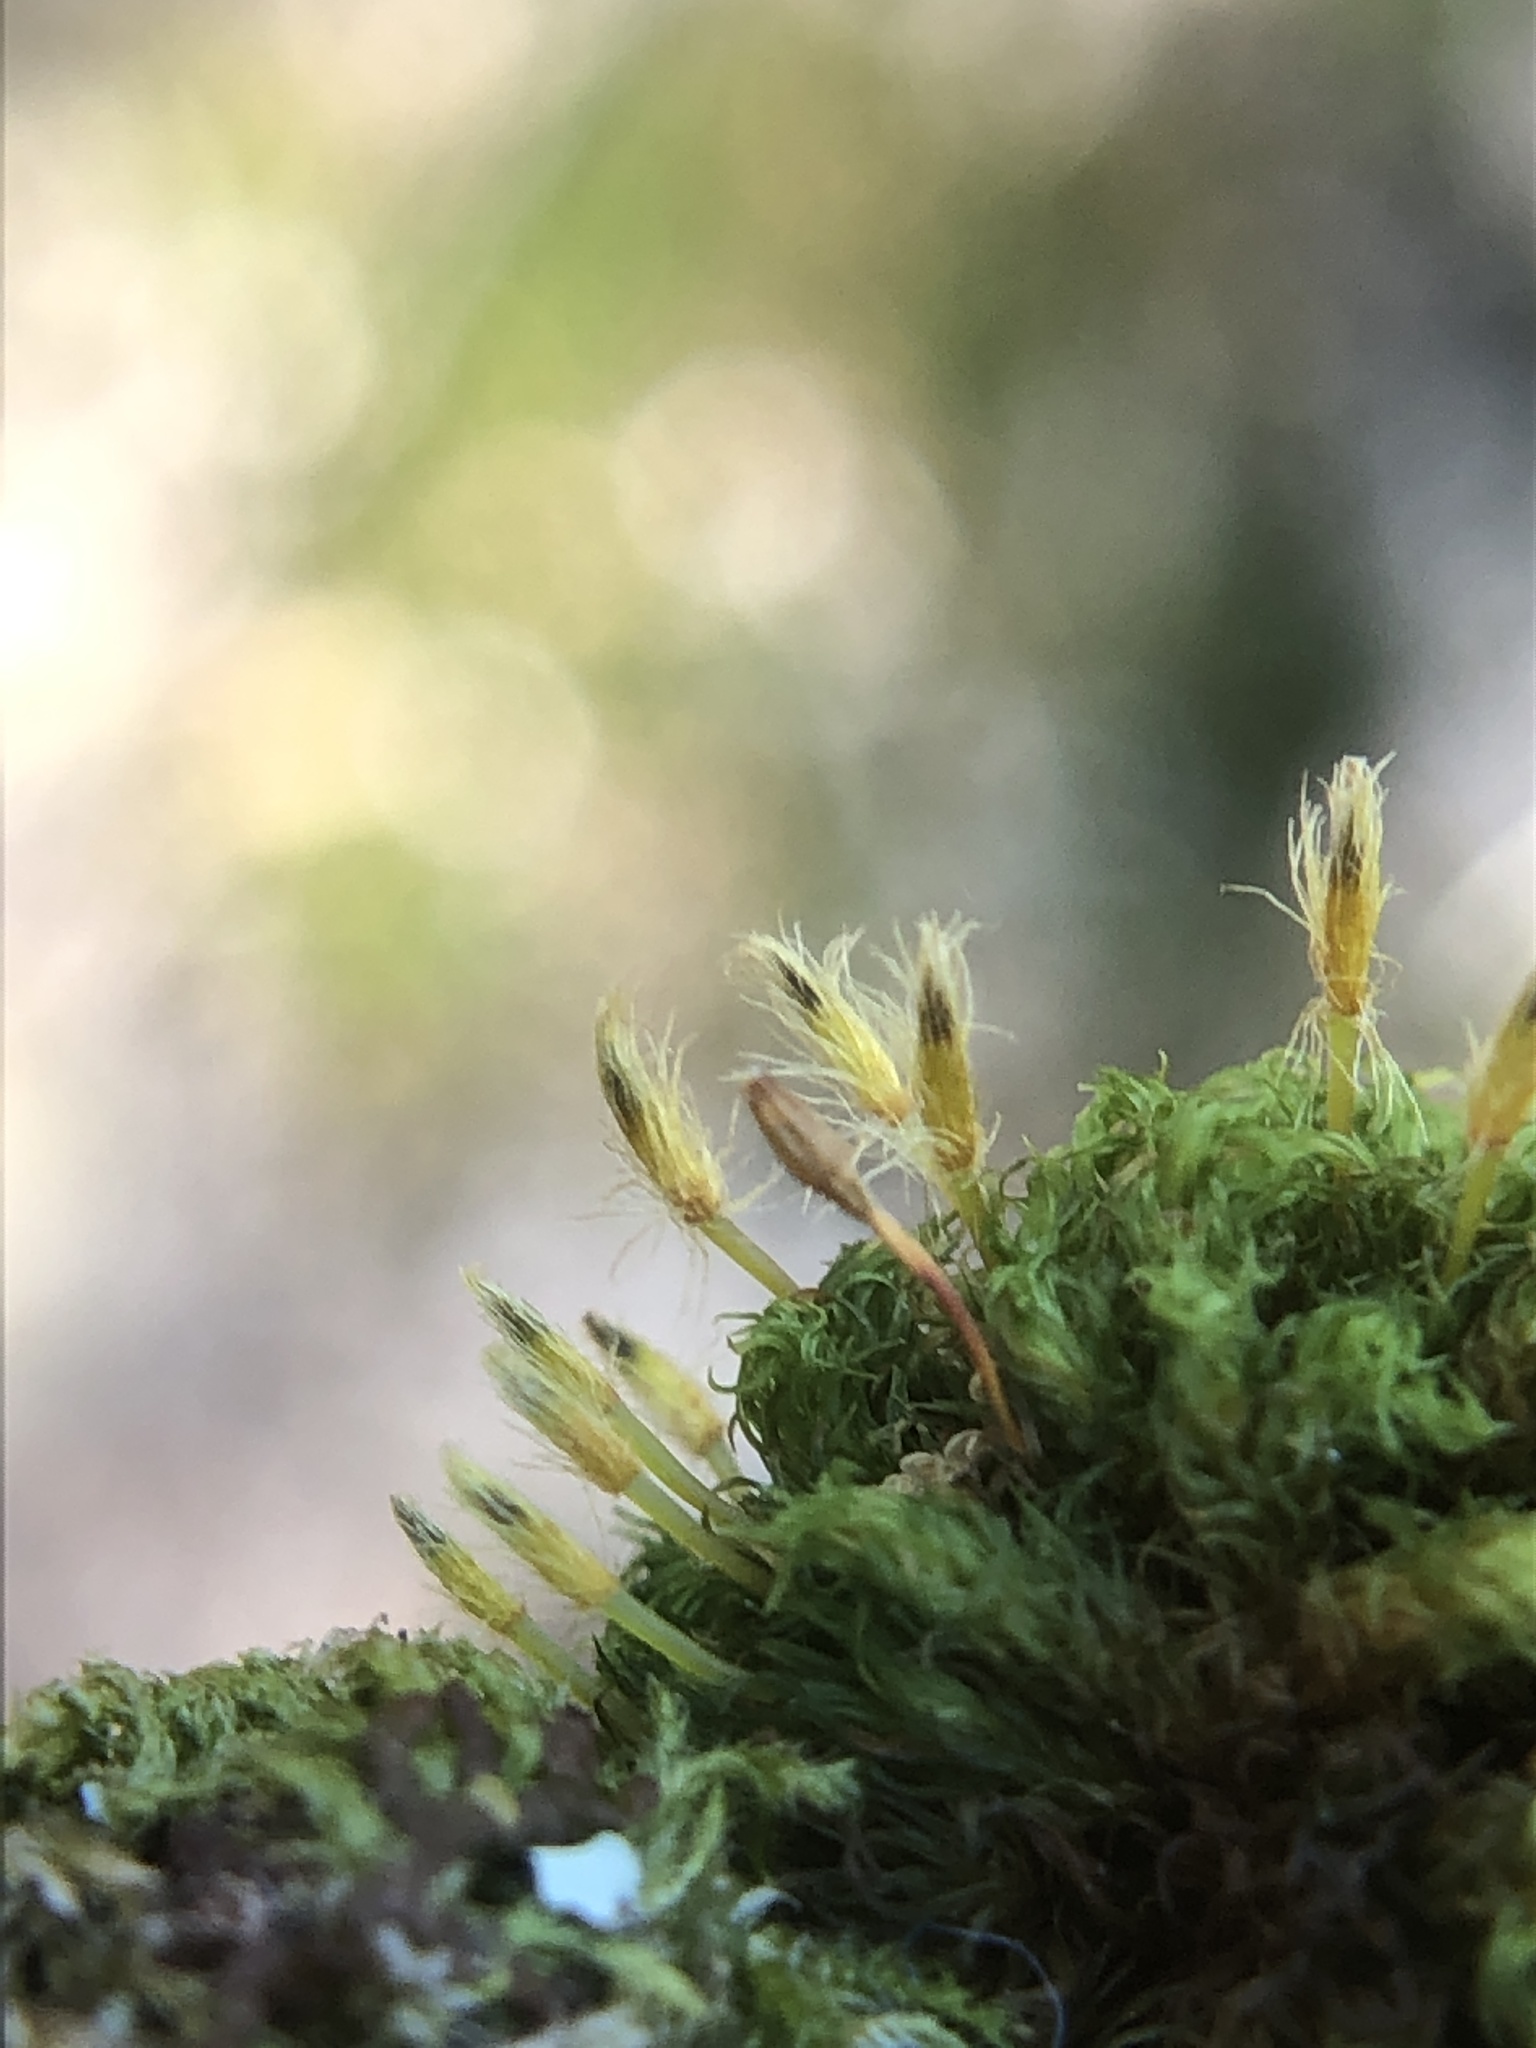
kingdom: Plantae
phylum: Bryophyta
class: Bryopsida
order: Orthotrichales
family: Orthotrichaceae
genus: Ulota
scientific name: Ulota bruchii
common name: Bruch's pincushion
